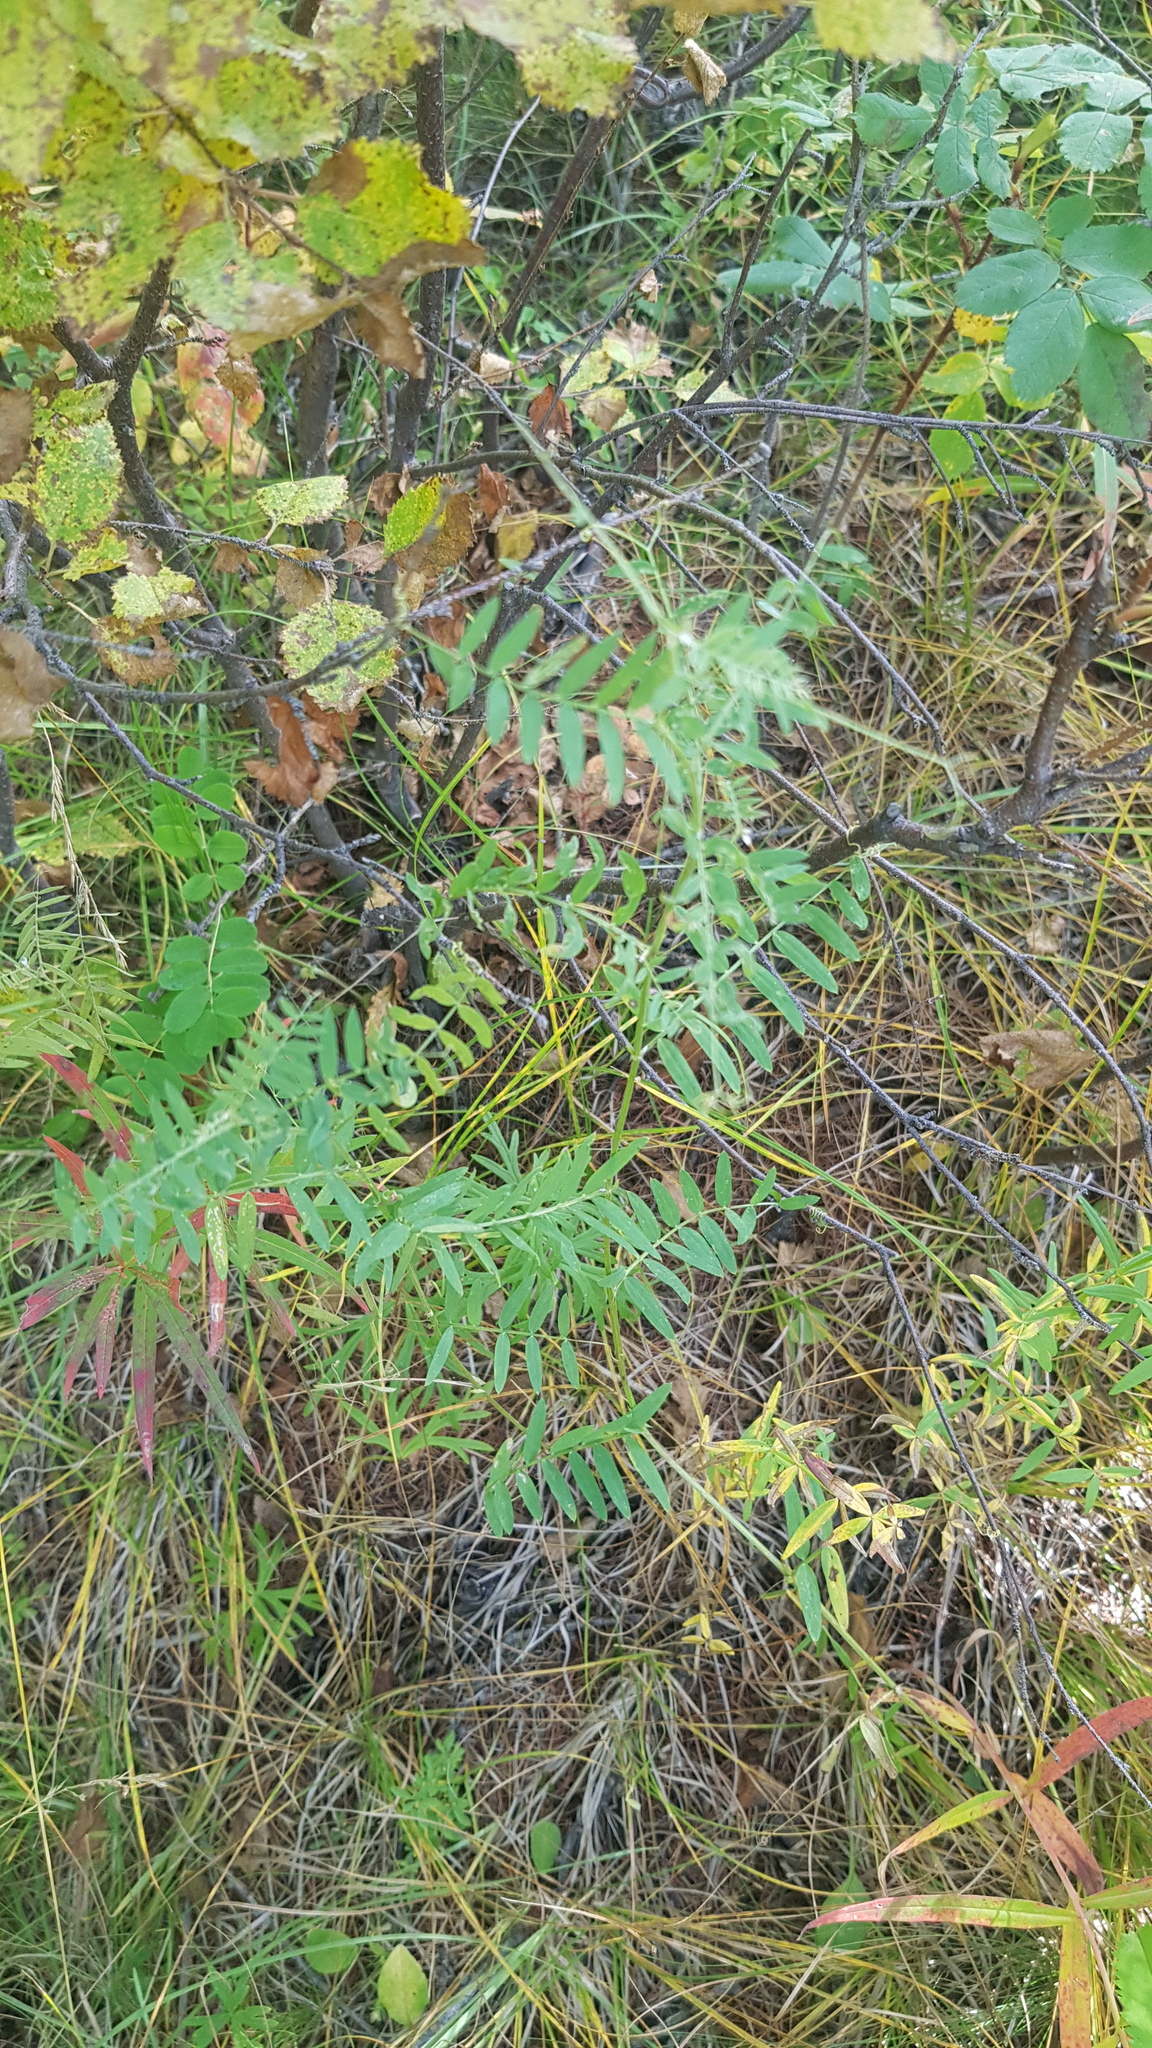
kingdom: Plantae
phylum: Tracheophyta
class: Magnoliopsida
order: Fabales
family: Fabaceae
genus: Vicia
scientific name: Vicia cracca
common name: Bird vetch
